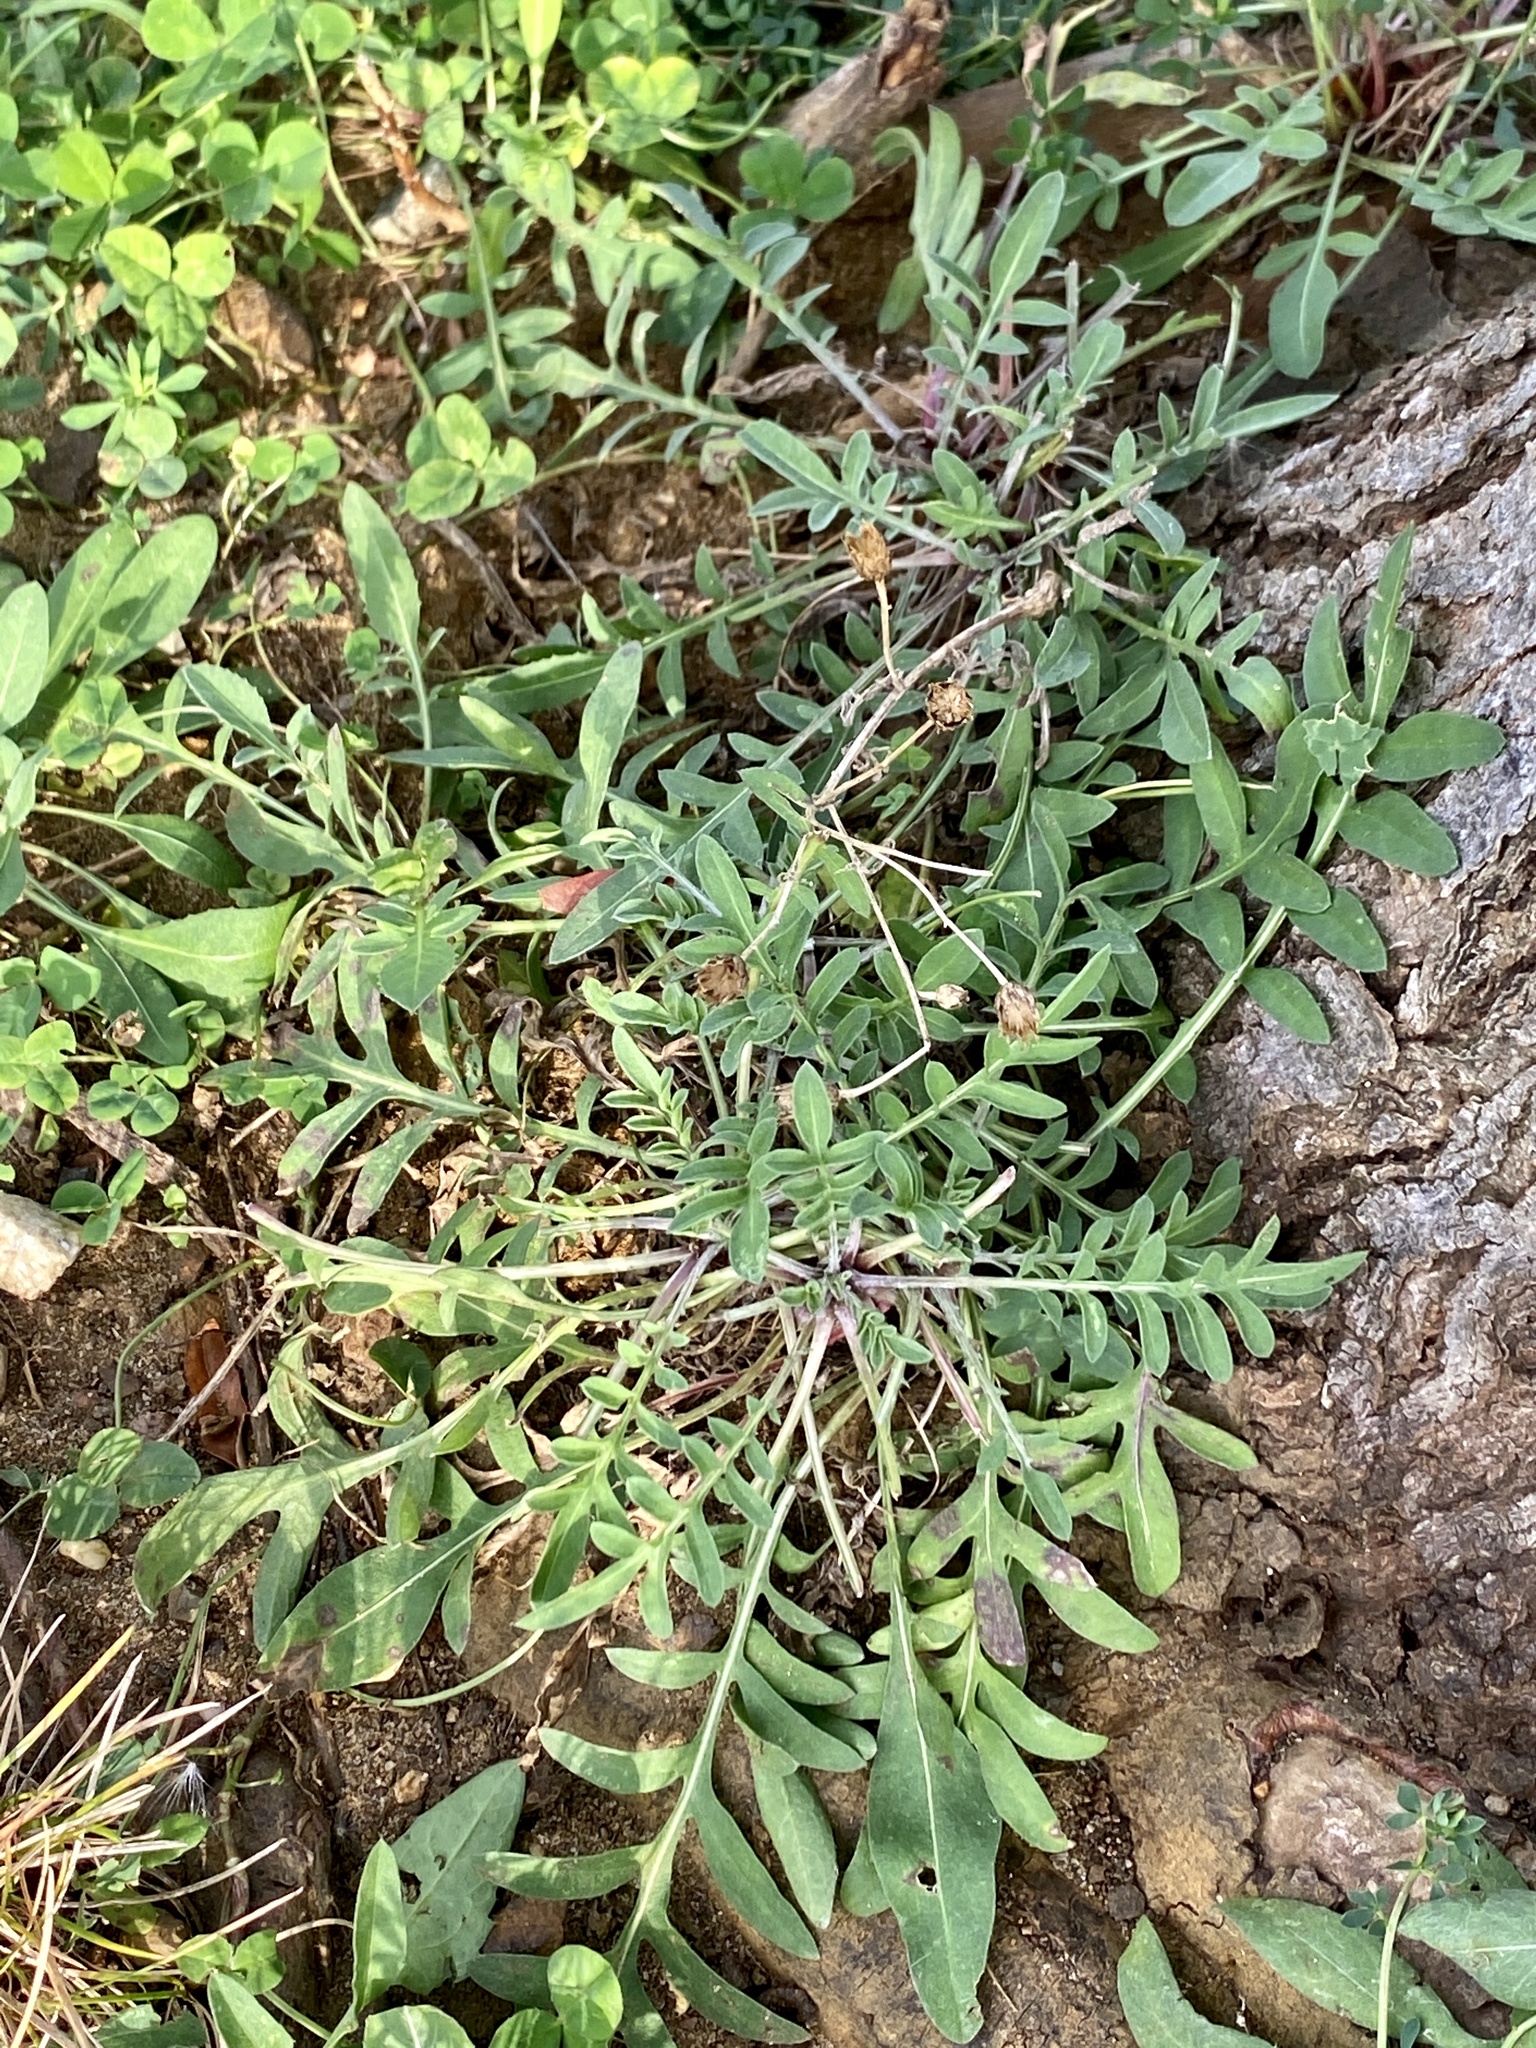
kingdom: Plantae
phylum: Tracheophyta
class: Magnoliopsida
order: Asterales
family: Asteraceae
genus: Centaurea
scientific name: Centaurea stoebe
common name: Spotted knapweed
